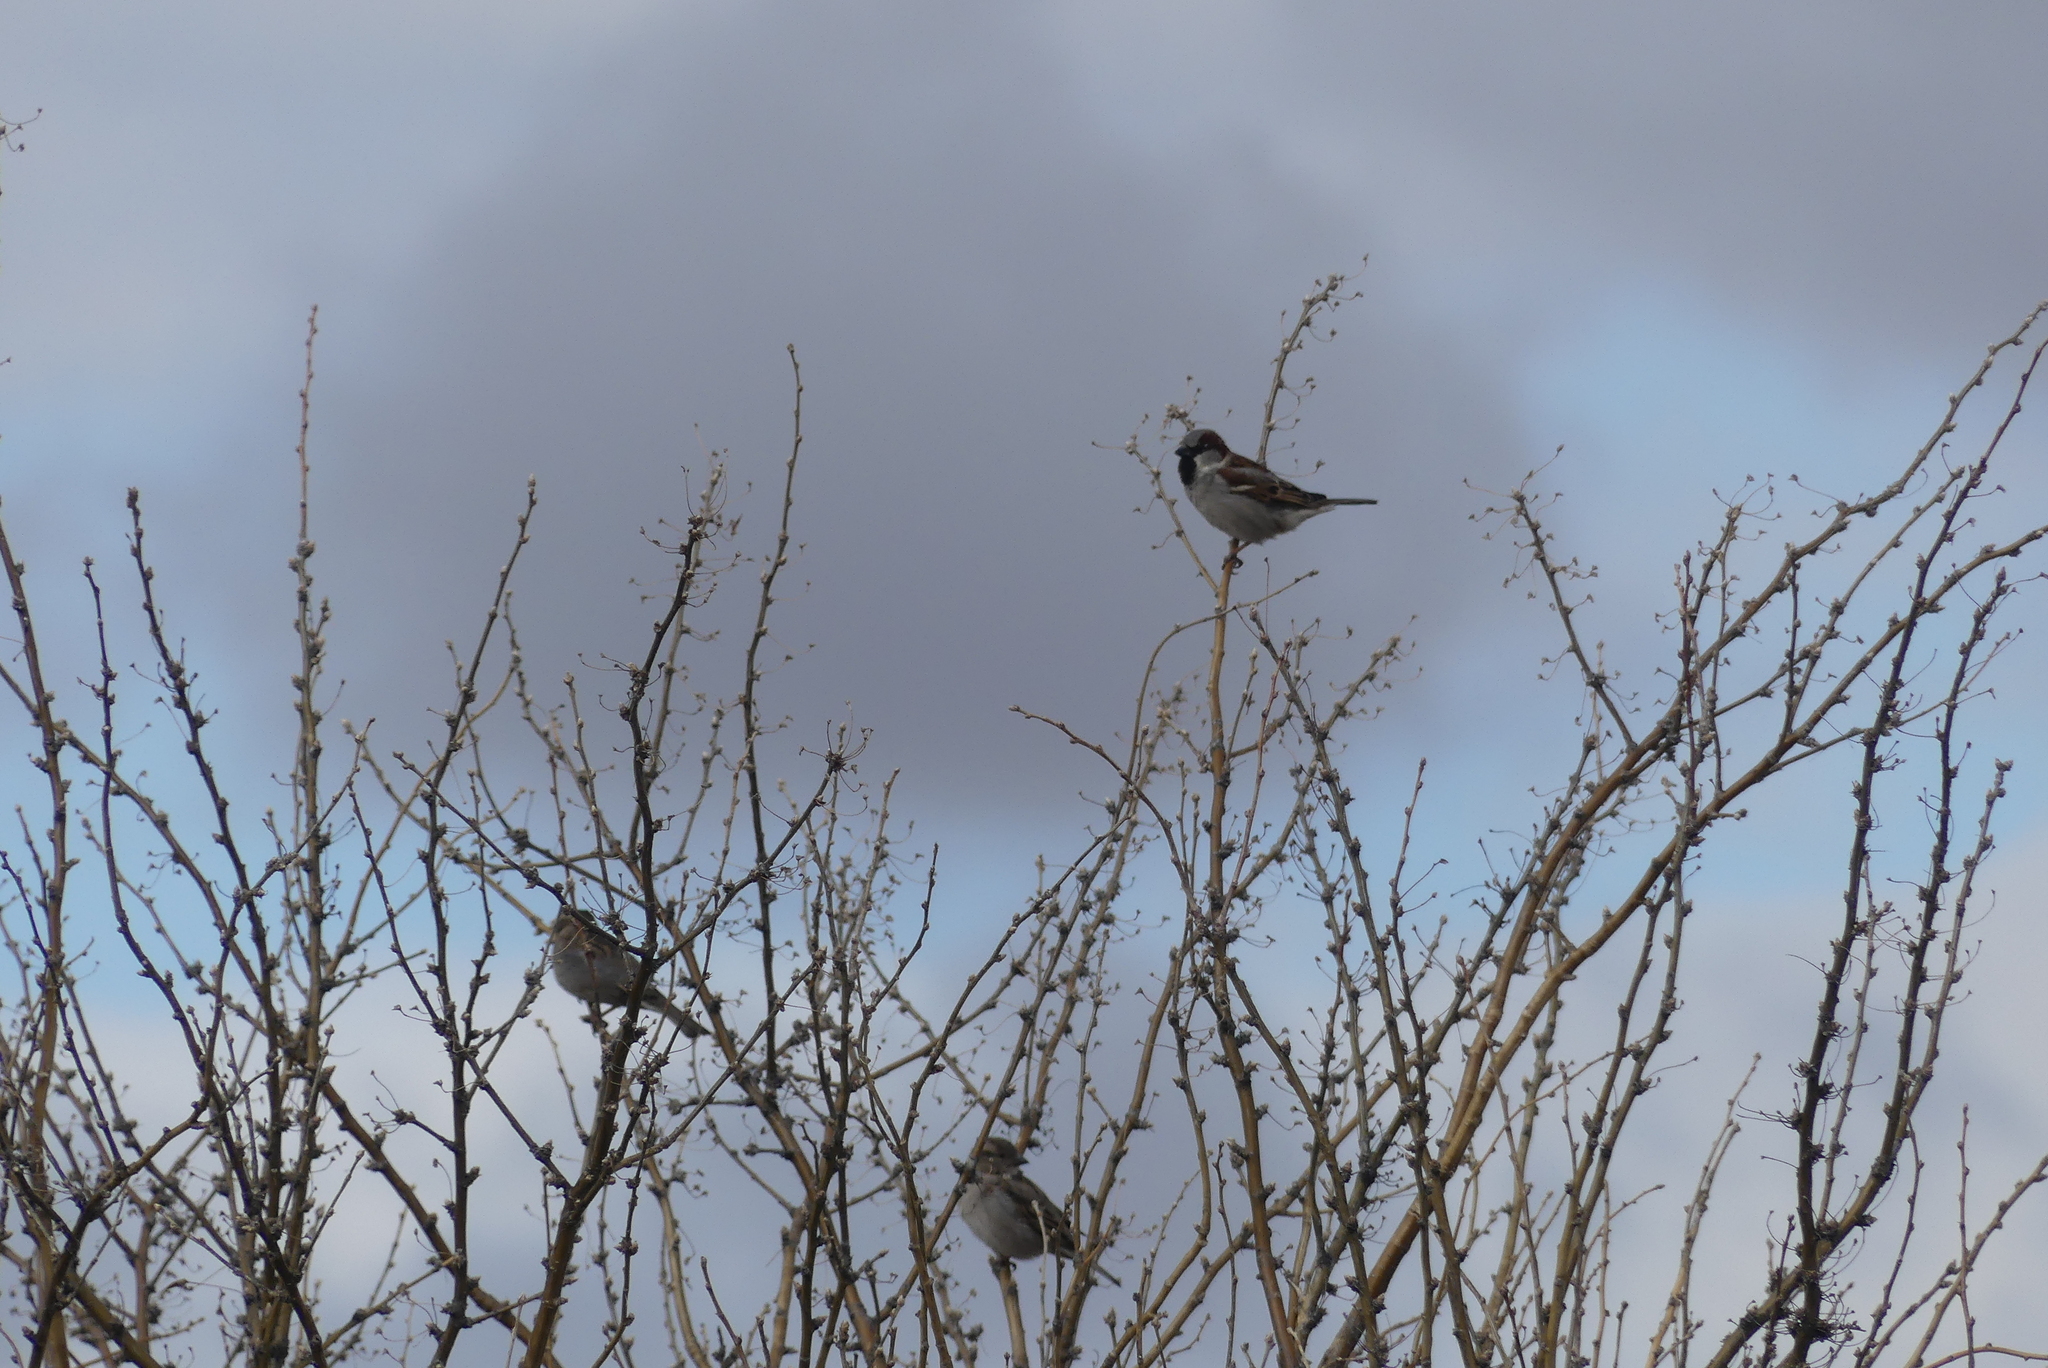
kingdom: Animalia
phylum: Chordata
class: Aves
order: Passeriformes
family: Passeridae
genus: Passer
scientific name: Passer domesticus
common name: House sparrow
